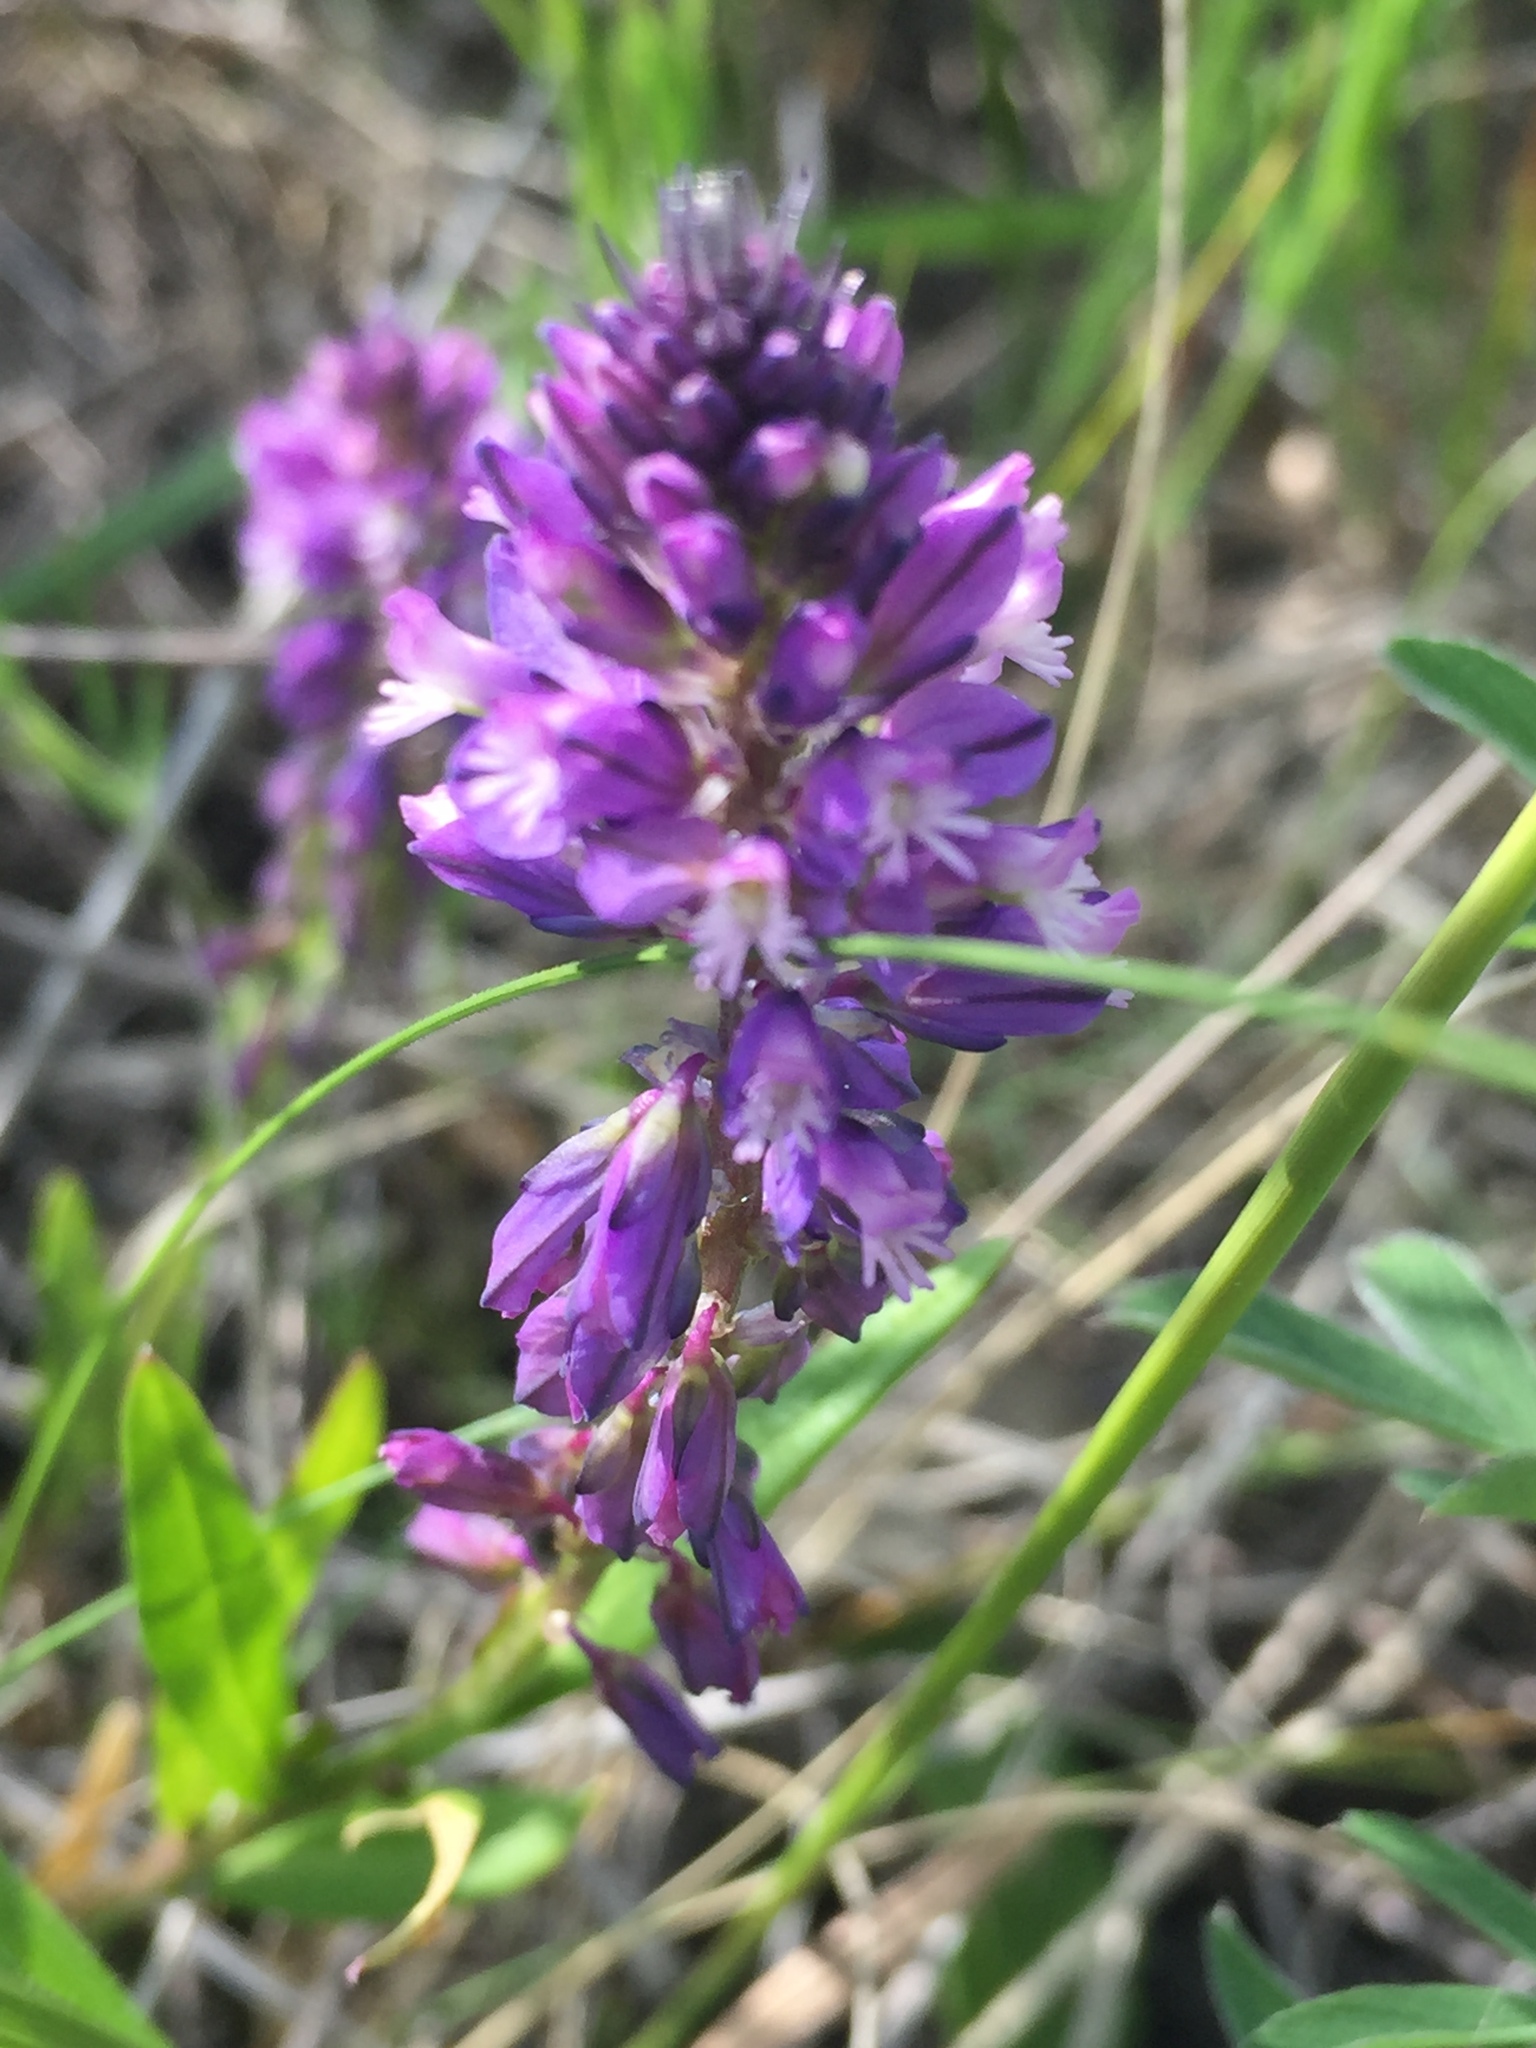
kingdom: Plantae
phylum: Tracheophyta
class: Magnoliopsida
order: Fabales
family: Polygalaceae
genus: Polygala
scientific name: Polygala comosa
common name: Tufted milkwort
